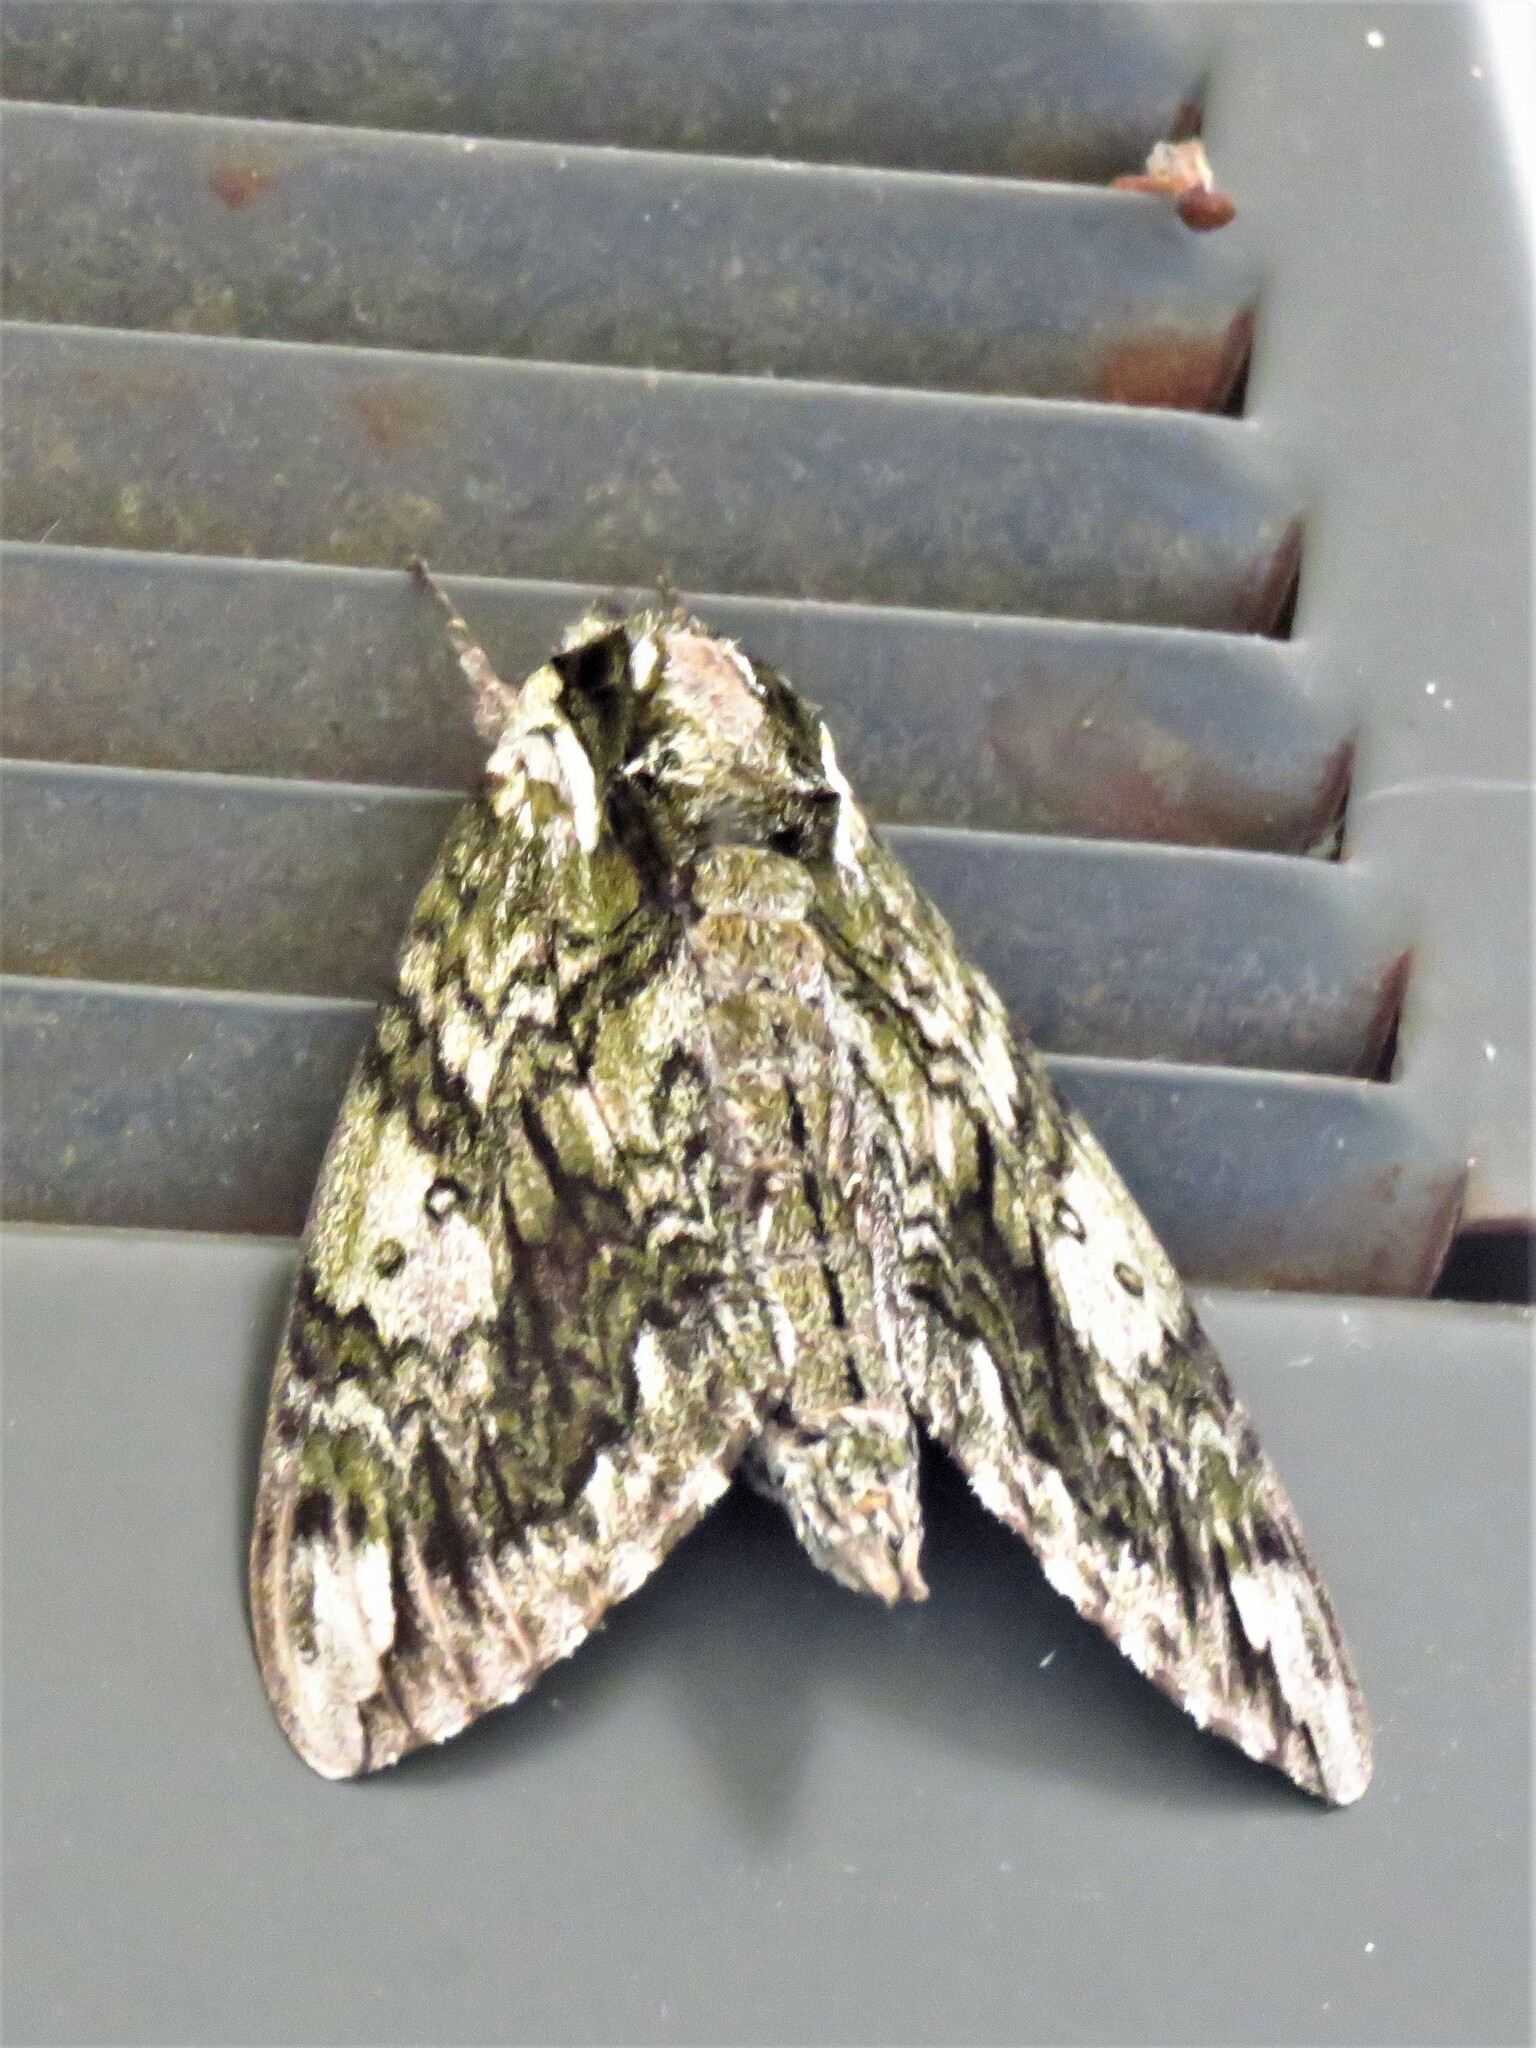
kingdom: Animalia
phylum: Arthropoda
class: Insecta
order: Lepidoptera
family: Sphingidae
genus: Ceratomia
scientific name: Ceratomia hageni
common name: Hagen's sphinx
